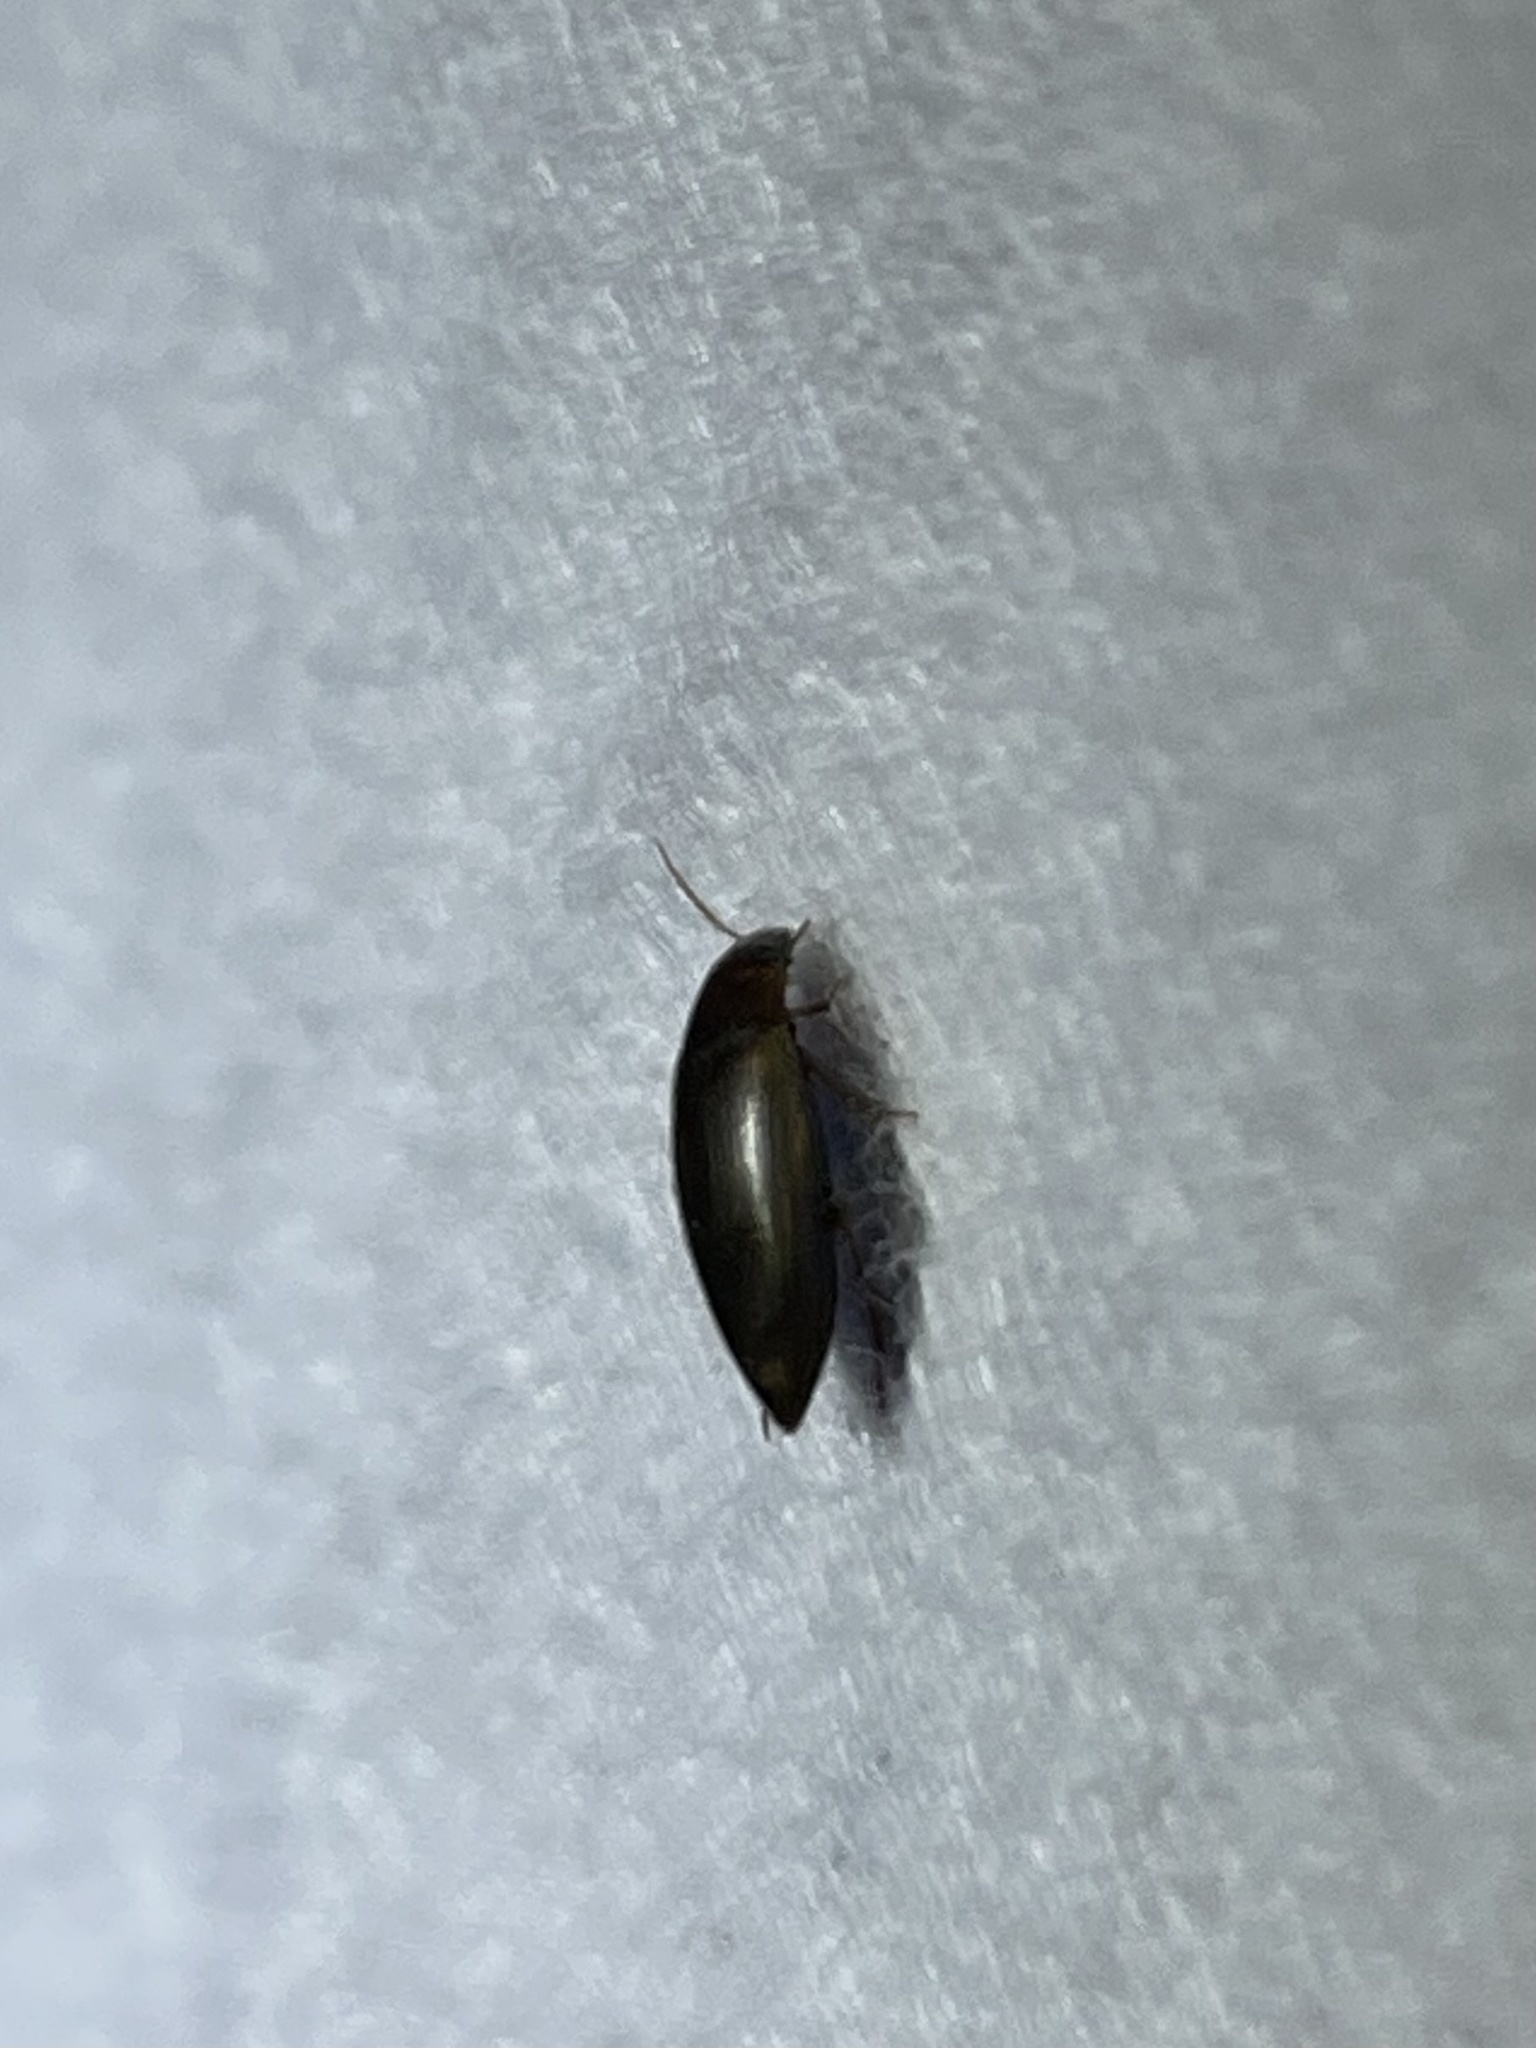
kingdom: Animalia
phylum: Arthropoda
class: Insecta
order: Coleoptera
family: Dytiscidae
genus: Copelatus
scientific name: Copelatus
